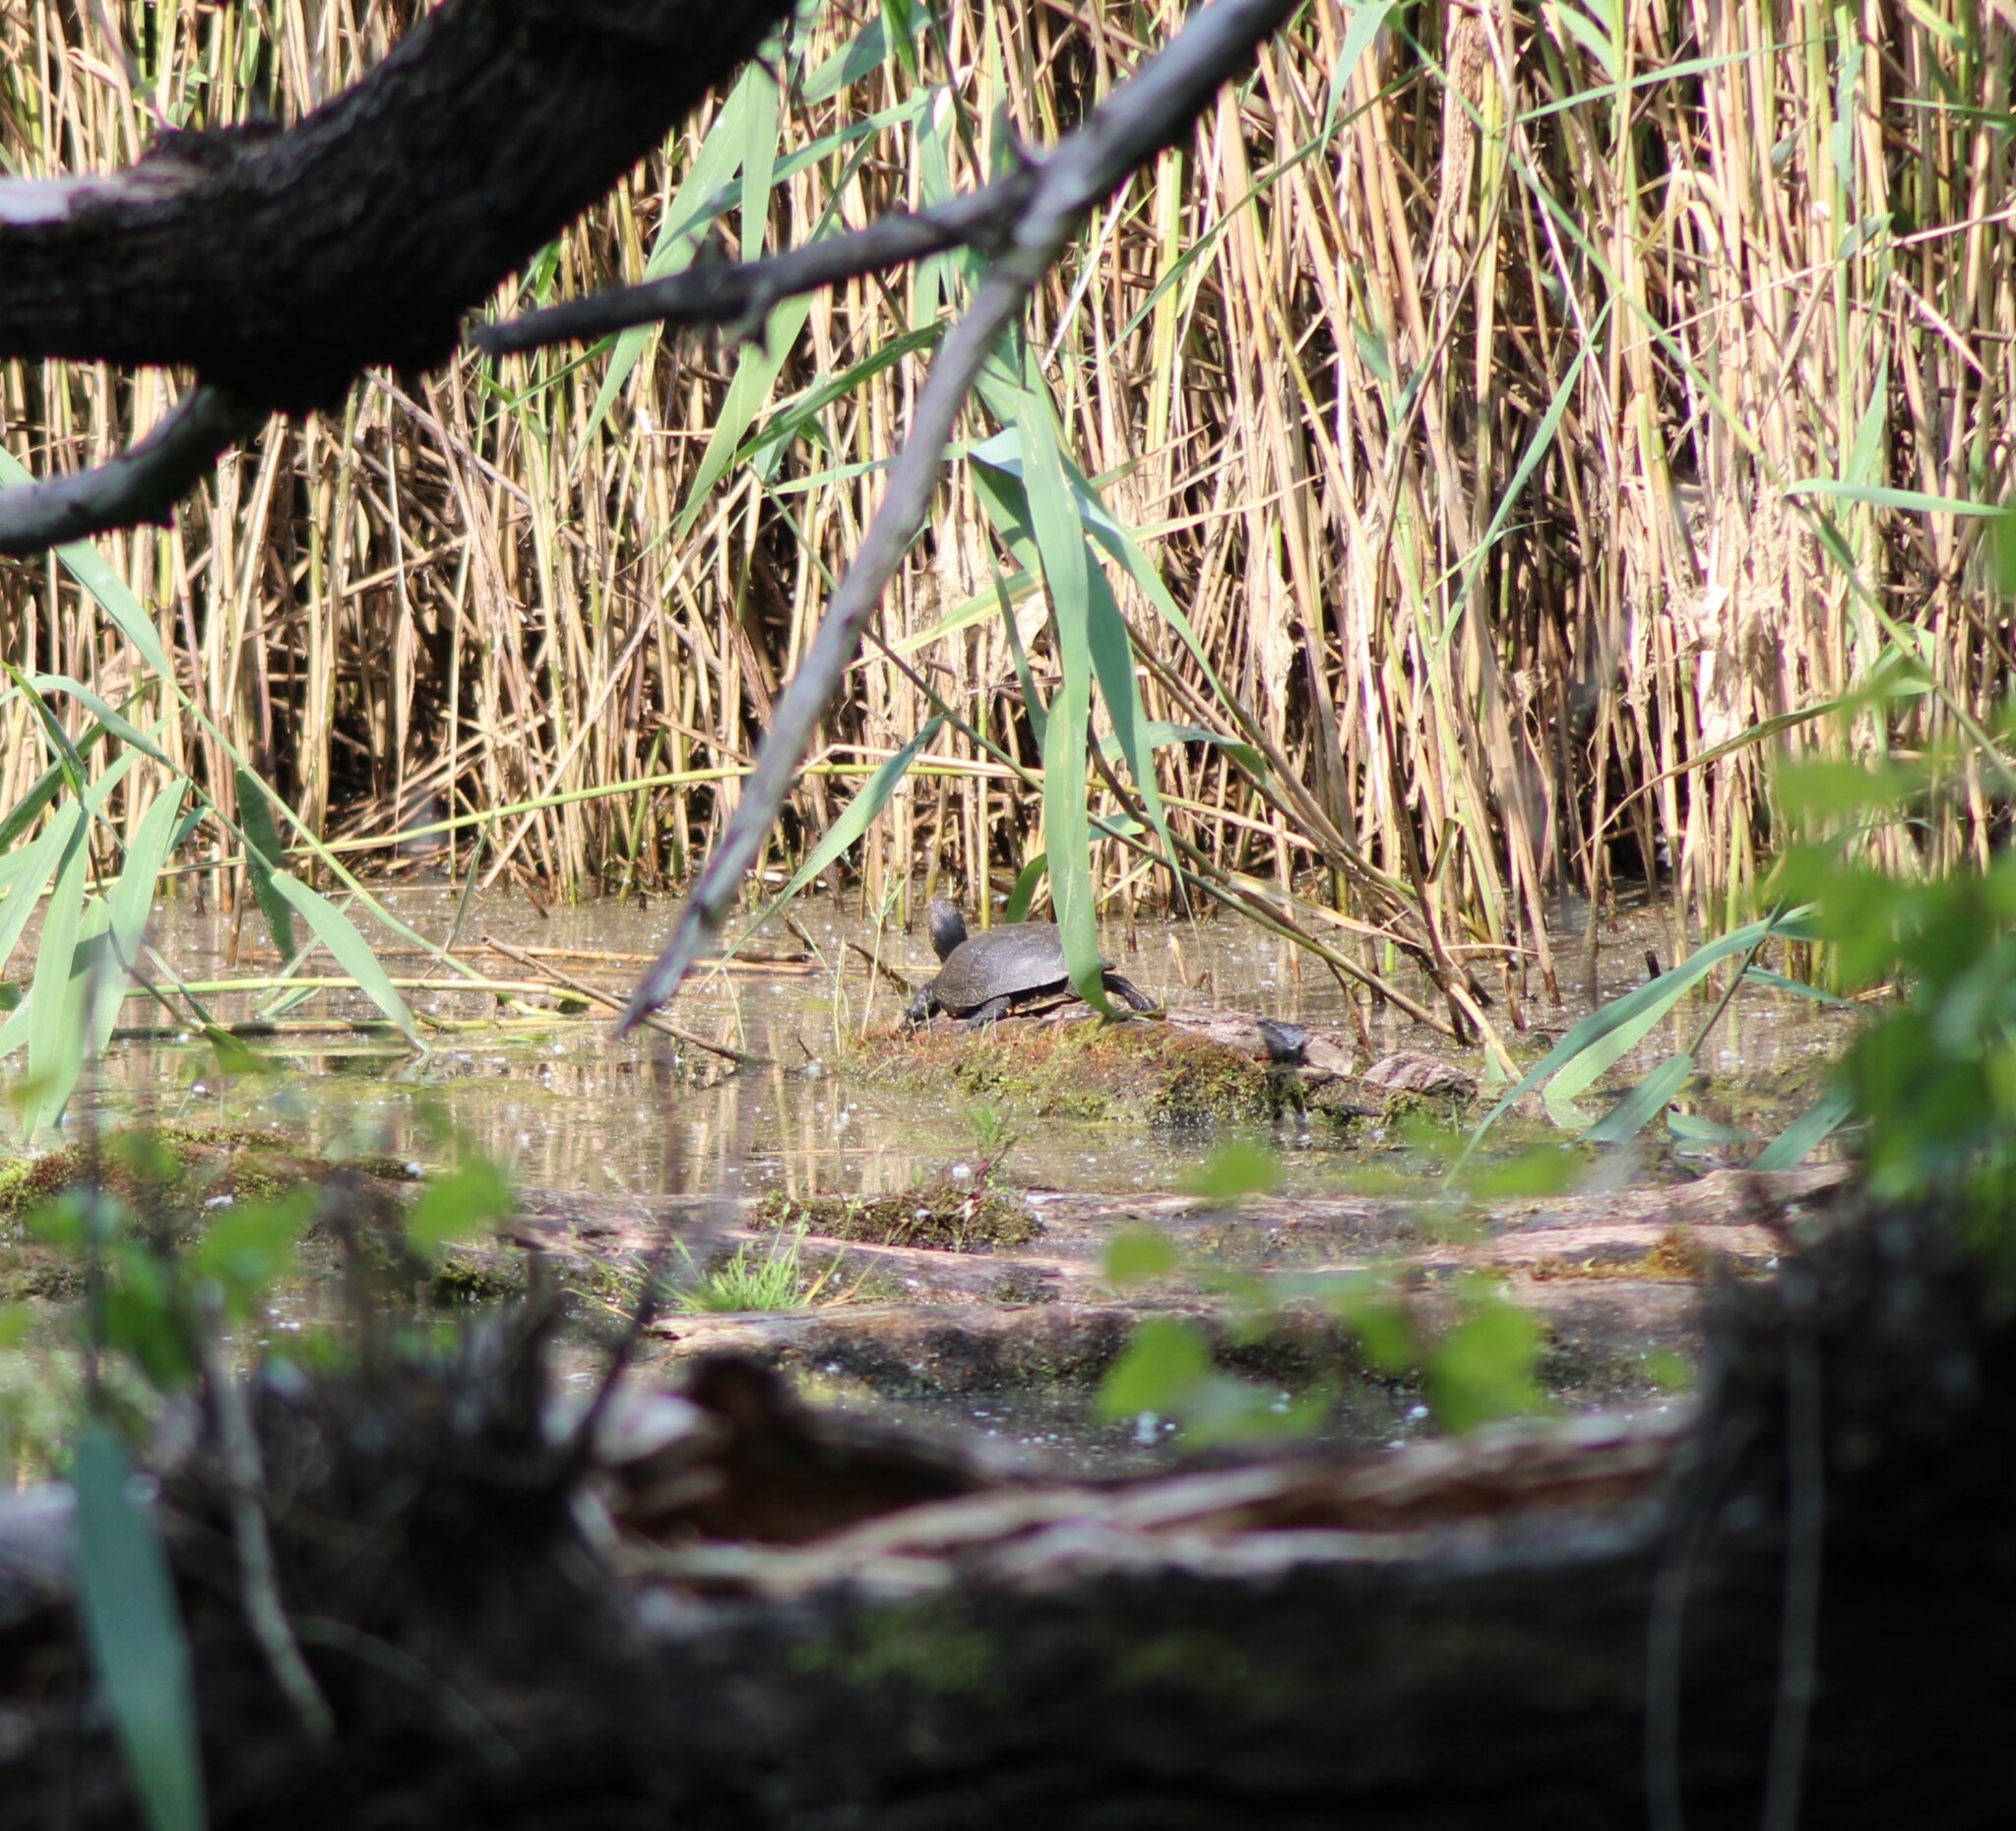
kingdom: Animalia
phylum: Chordata
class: Testudines
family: Emydidae
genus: Emys
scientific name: Emys orbicularis
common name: European pond turtle
